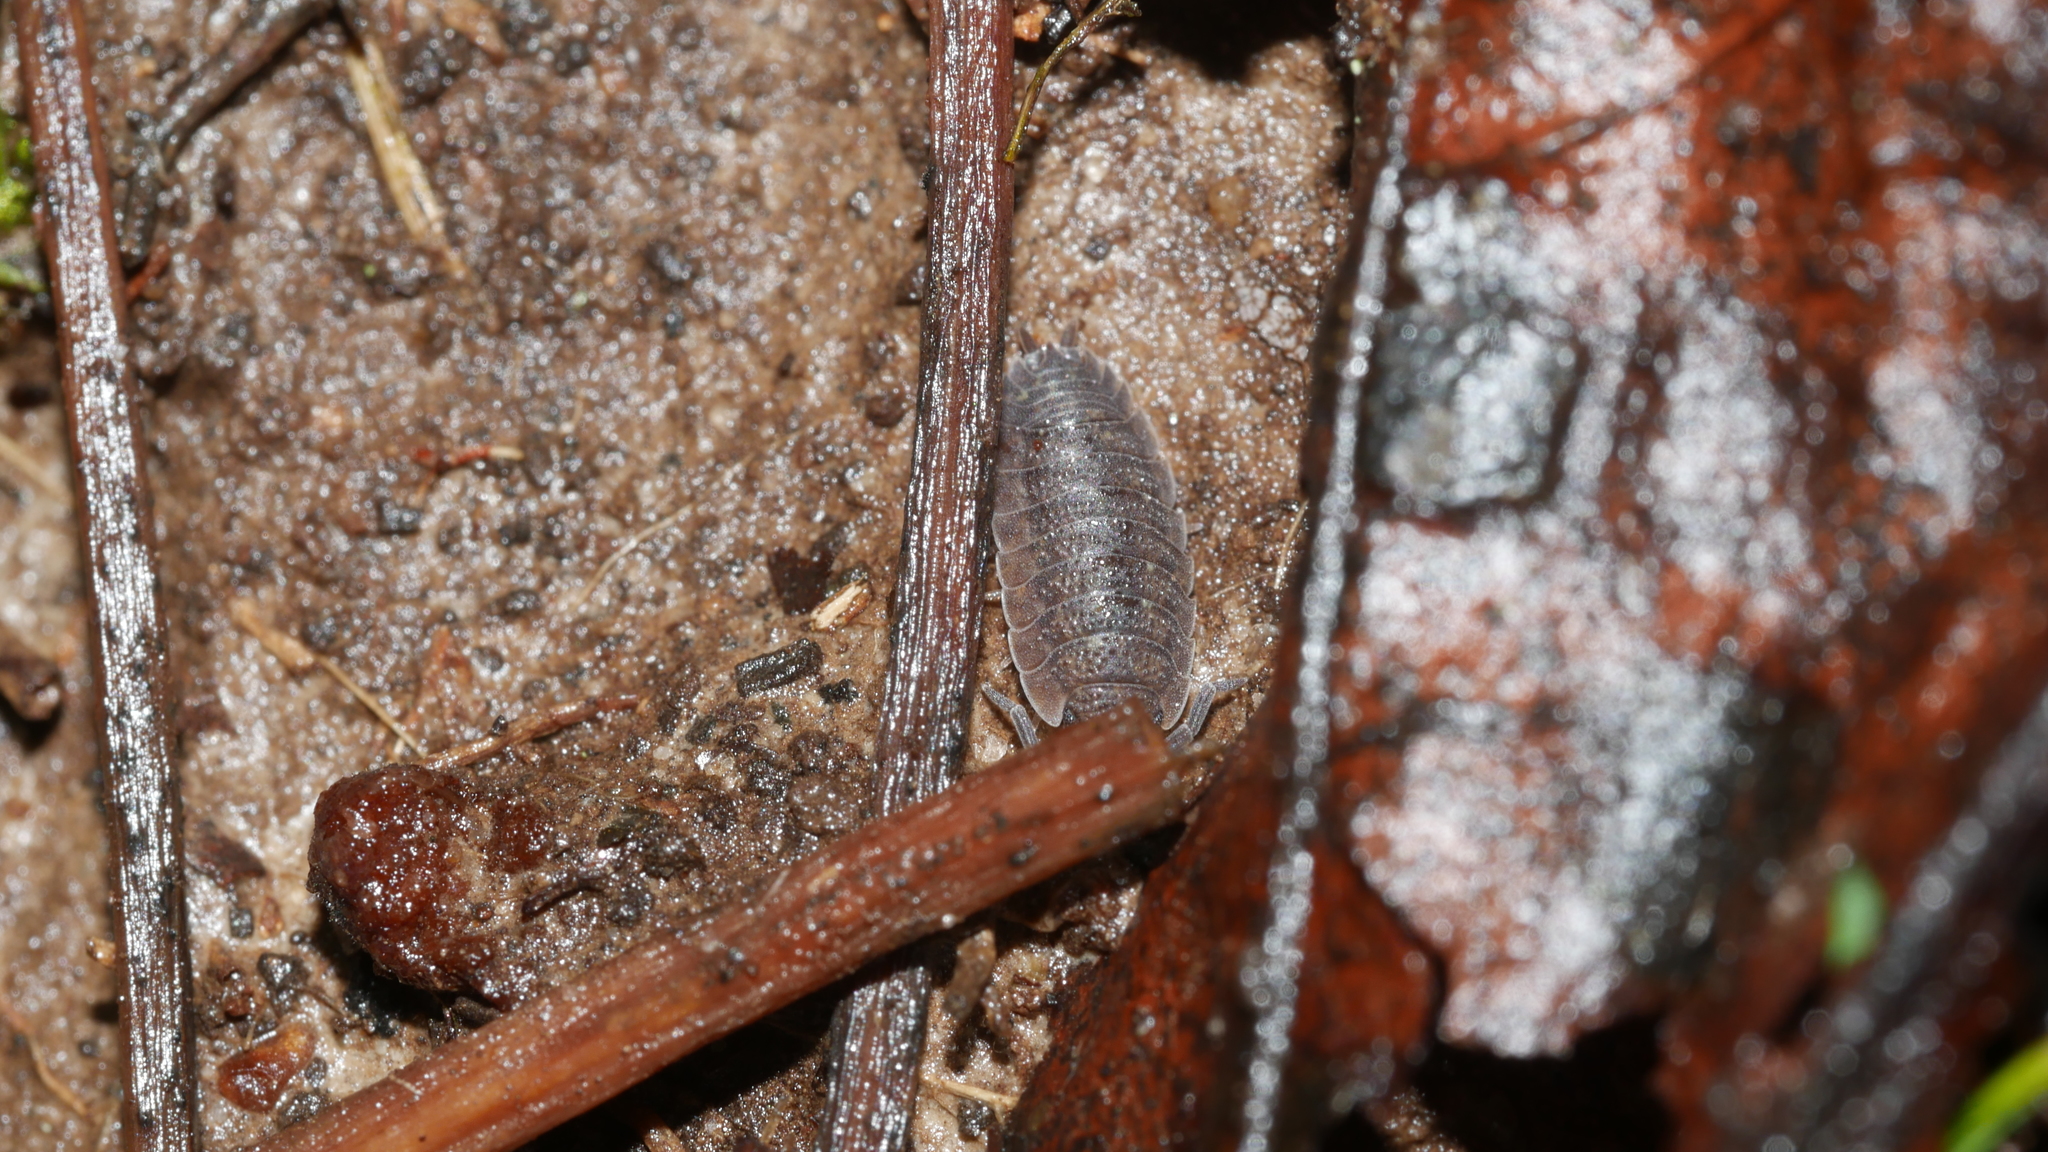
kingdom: Animalia
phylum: Arthropoda
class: Malacostraca
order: Isopoda
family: Porcellionidae
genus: Porcellio
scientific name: Porcellio scaber
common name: Common rough woodlouse
